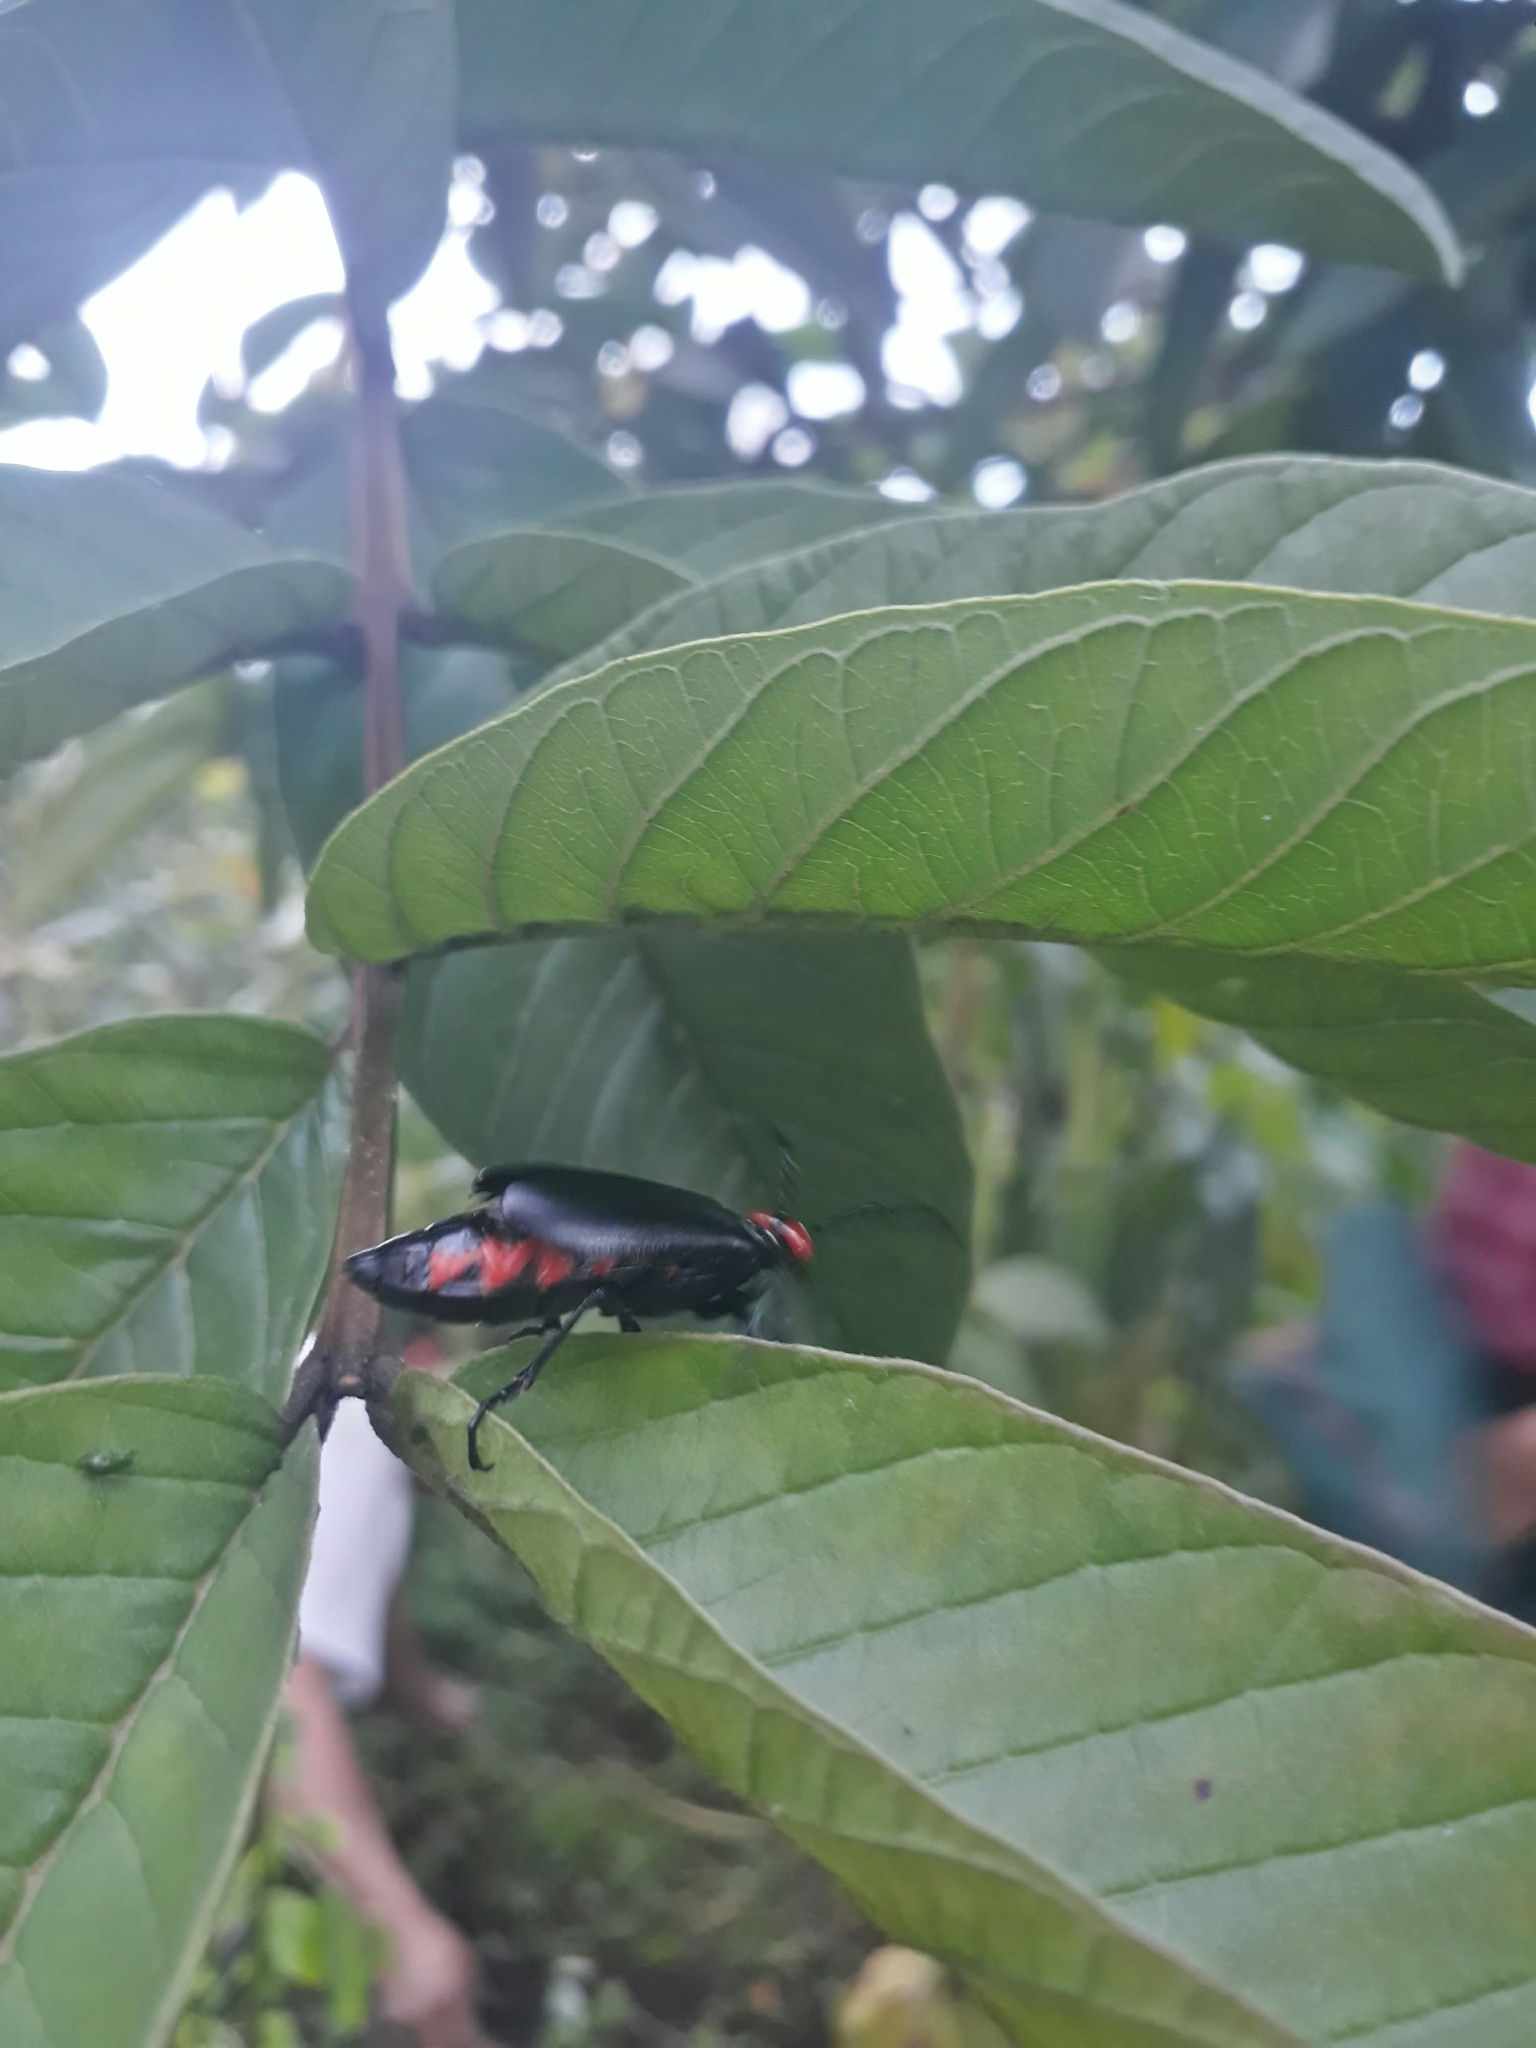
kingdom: Animalia
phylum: Arthropoda
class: Insecta
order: Coleoptera
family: Meloidae
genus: Lytta
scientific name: Lytta eucera
